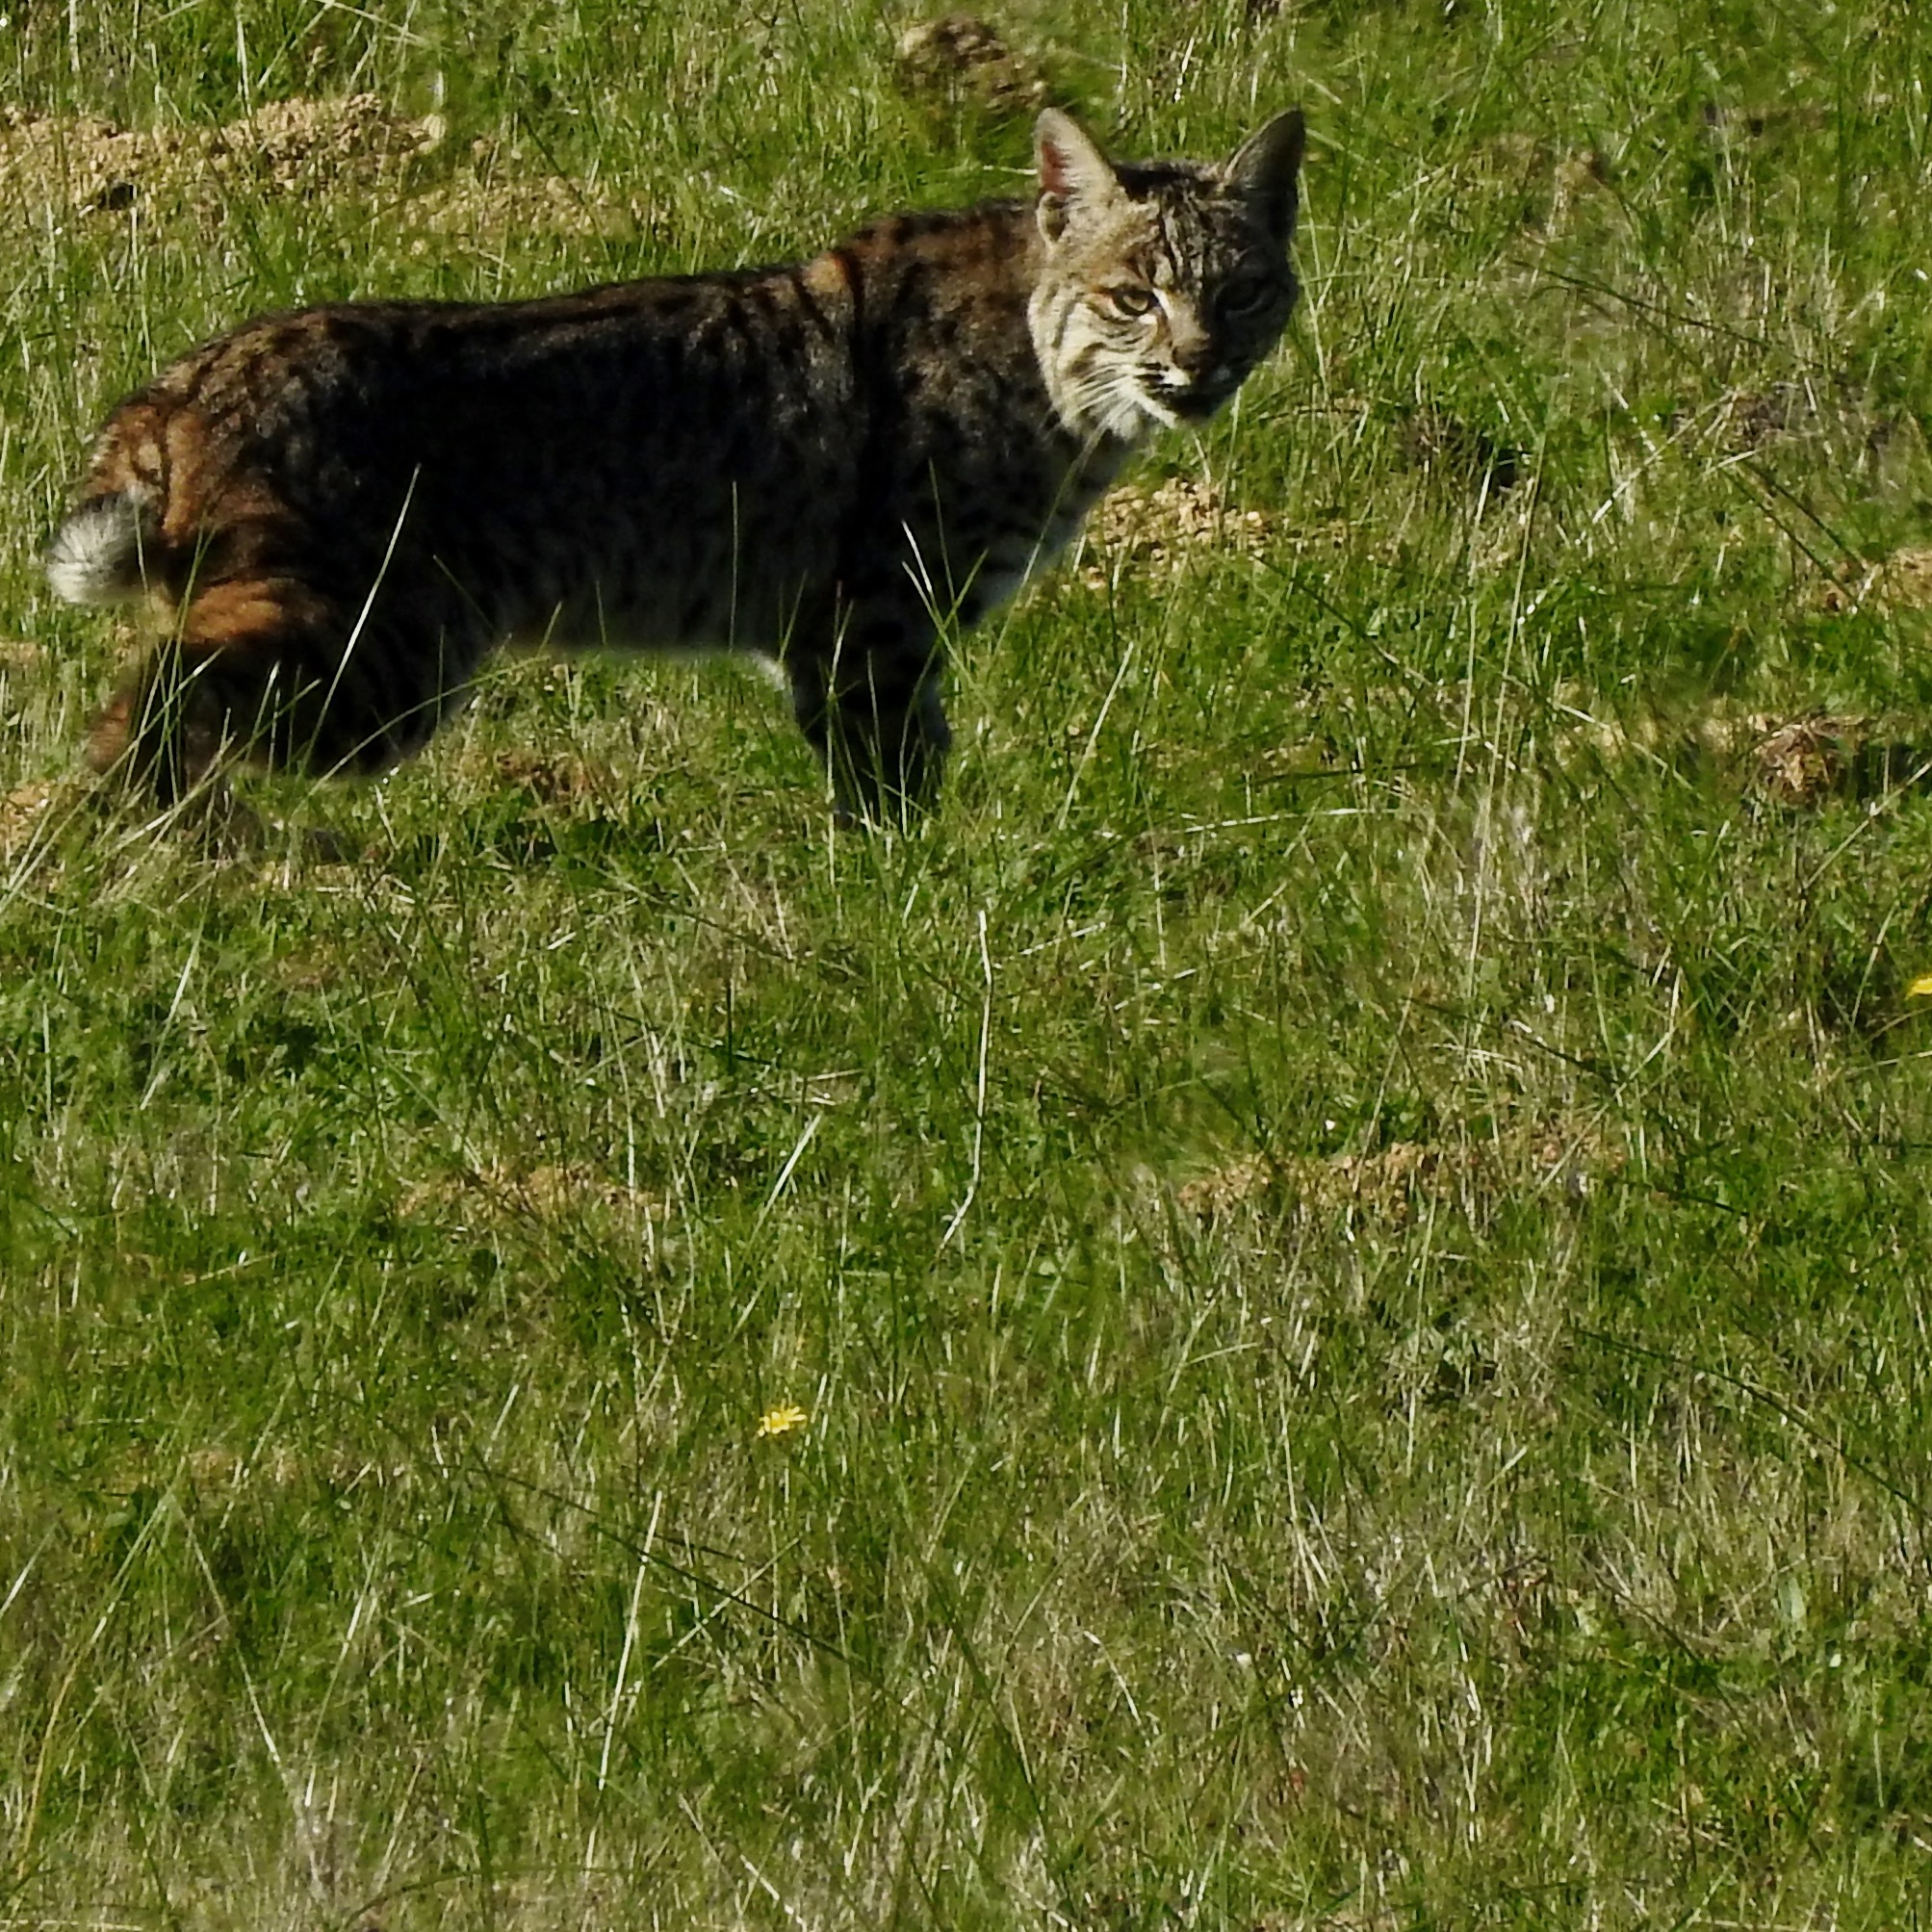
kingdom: Animalia
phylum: Chordata
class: Mammalia
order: Carnivora
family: Felidae
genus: Lynx
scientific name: Lynx rufus
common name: Bobcat
